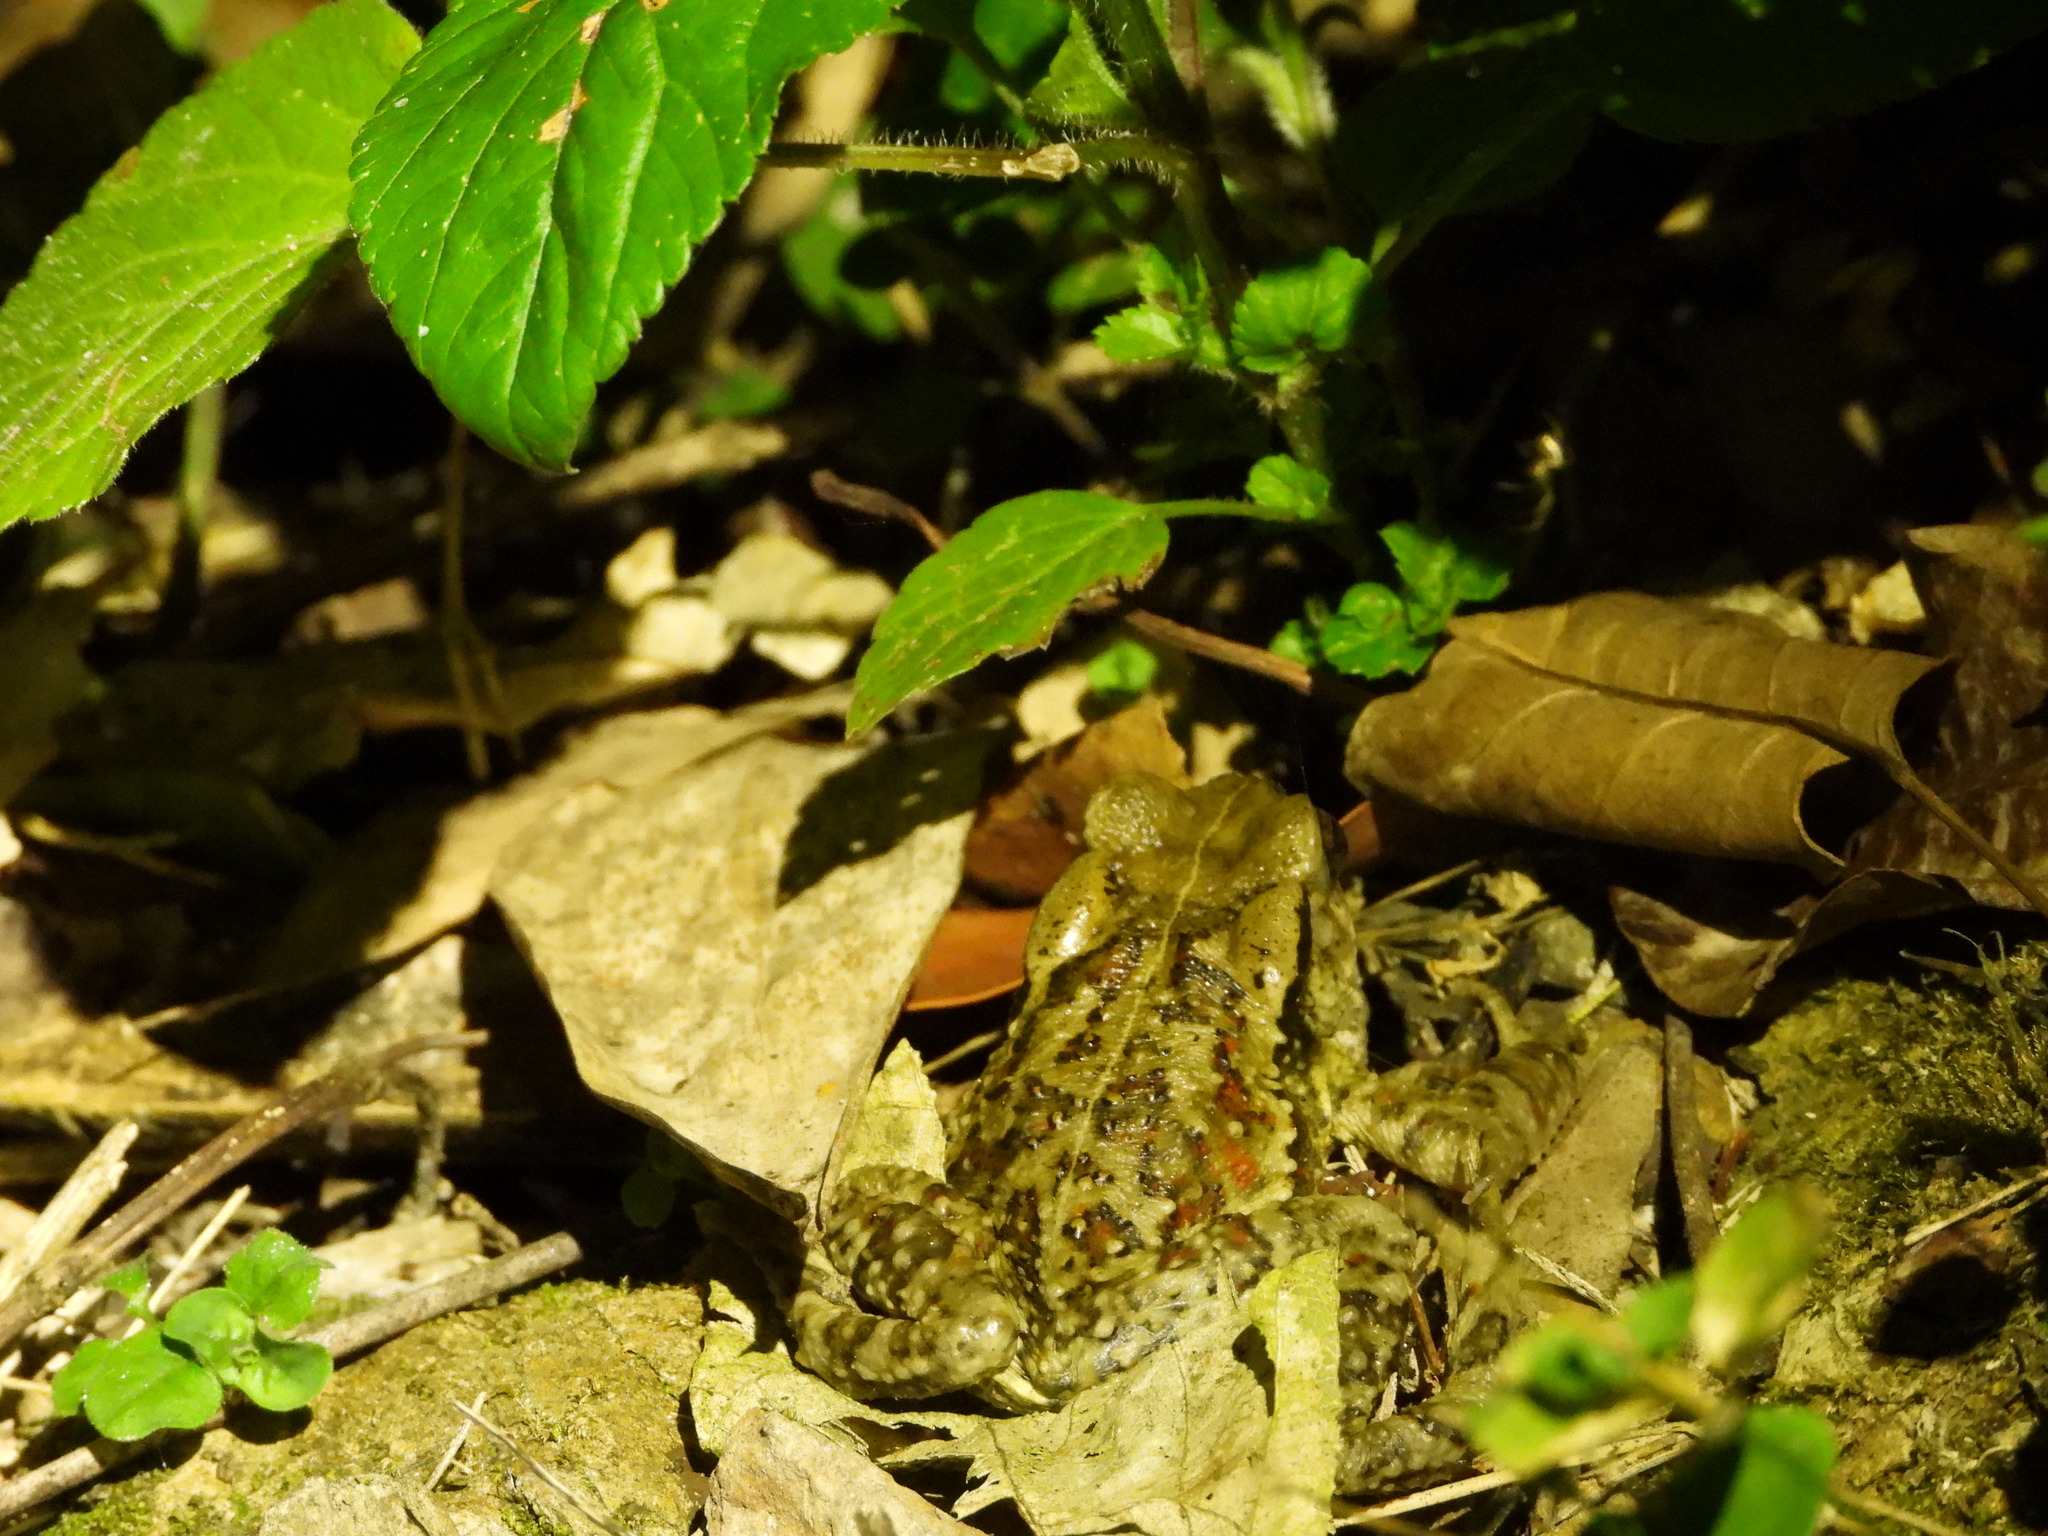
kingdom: Animalia
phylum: Chordata
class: Amphibia
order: Anura
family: Bufonidae
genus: Bufo
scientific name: Bufo bankorensis
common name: Bankor toad
